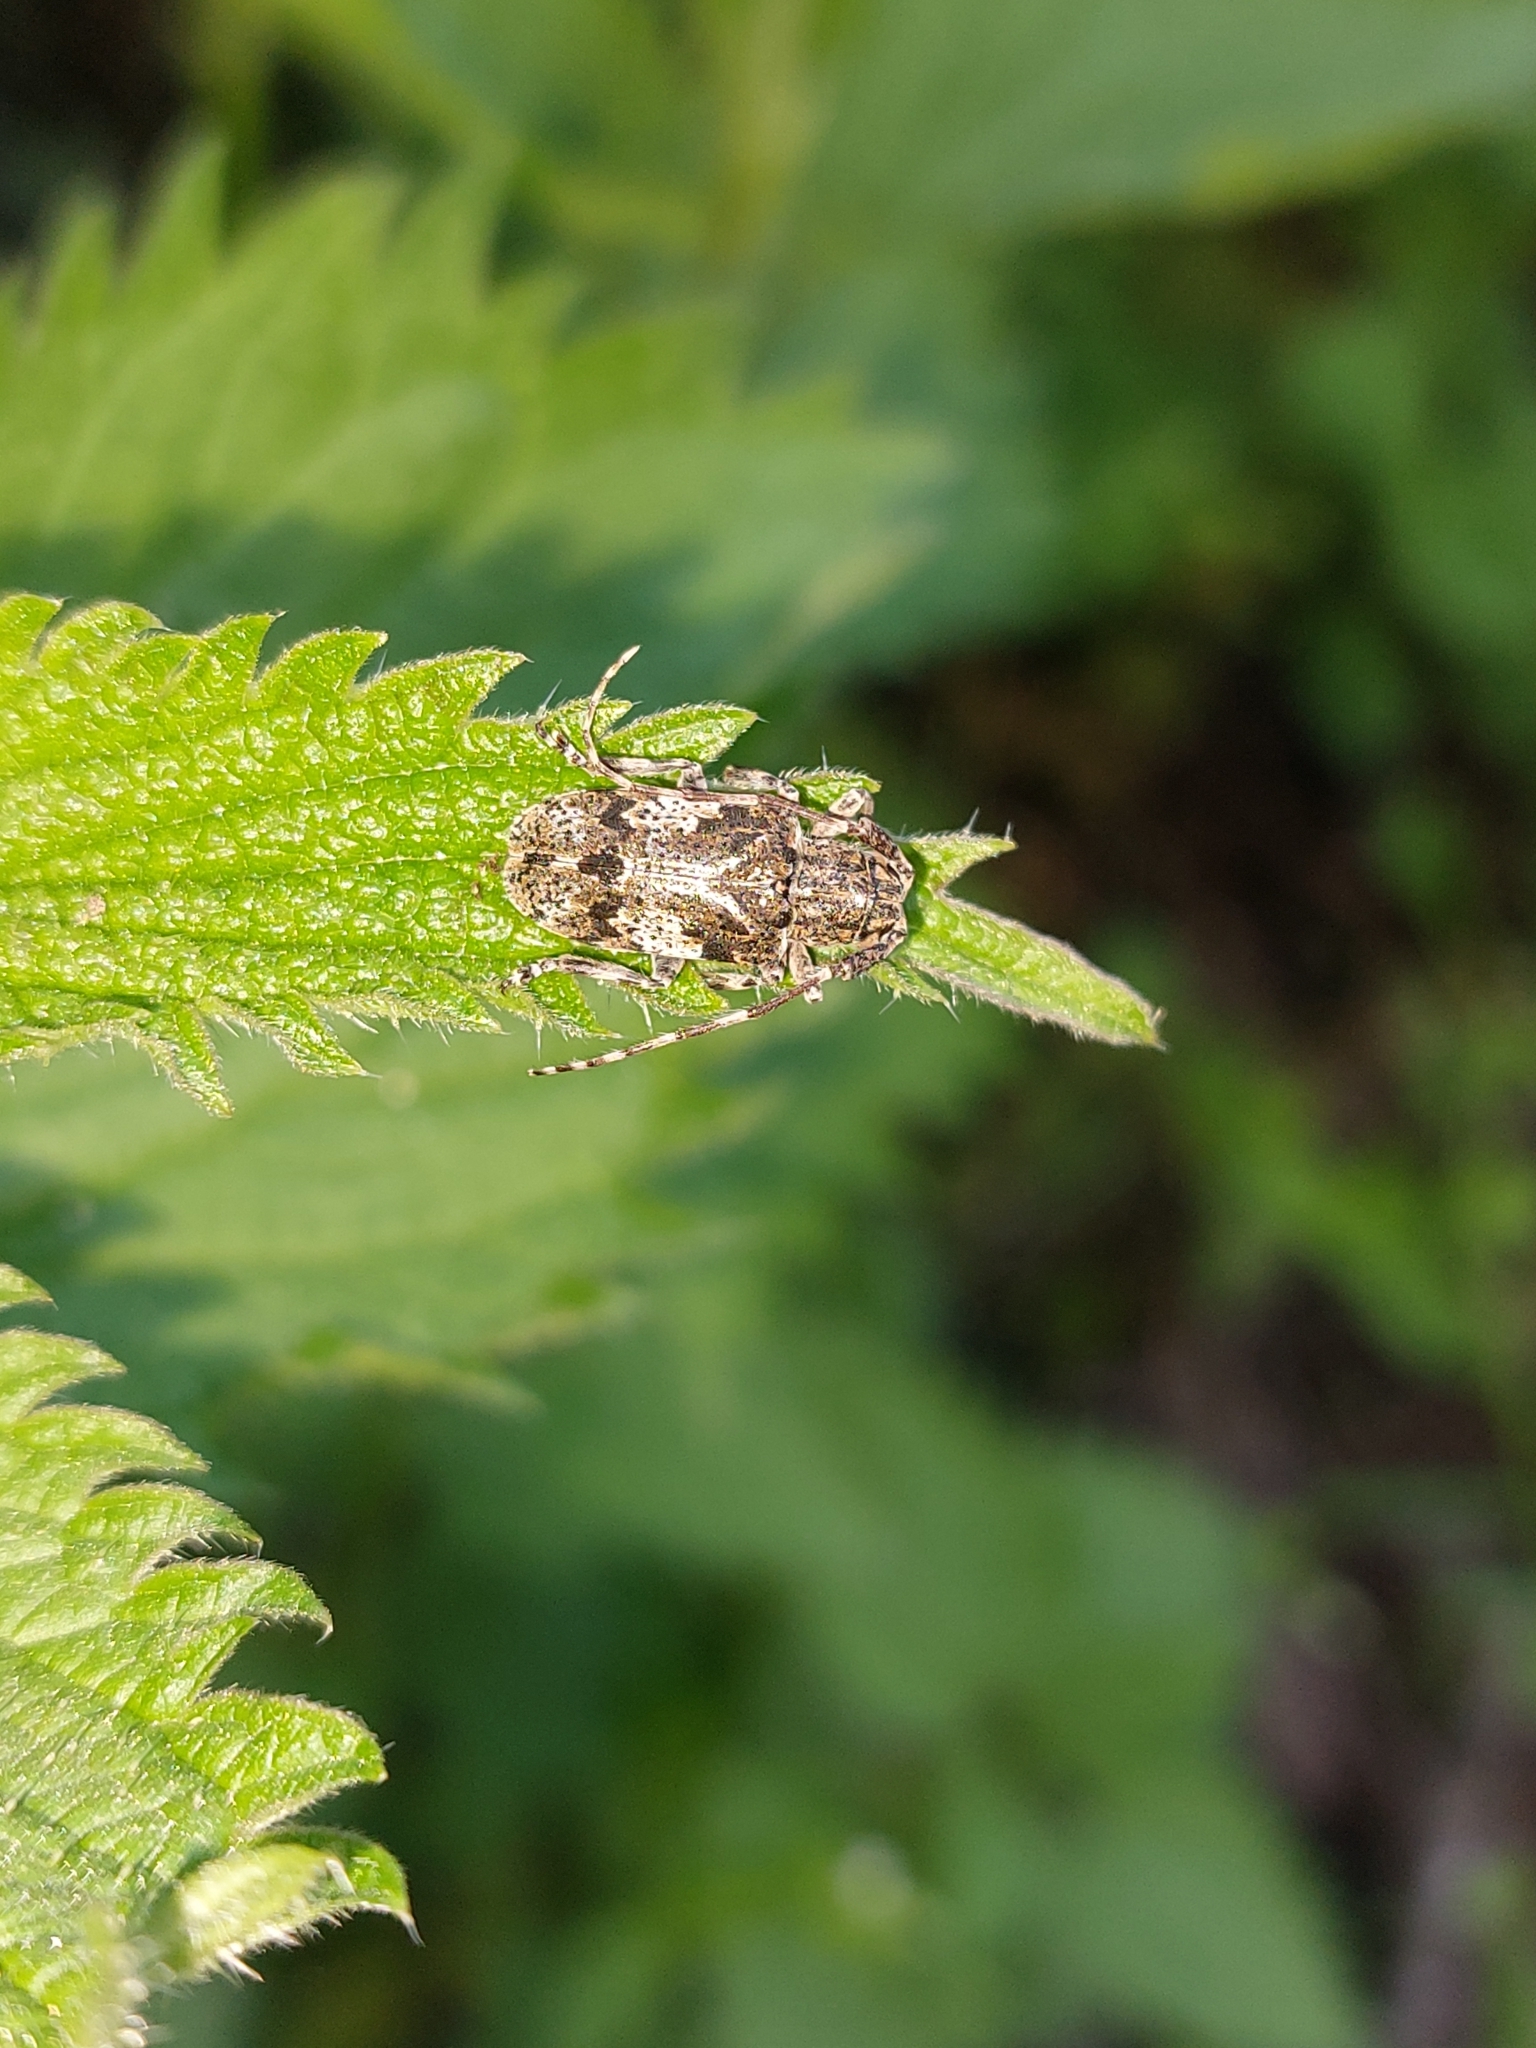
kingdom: Animalia
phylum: Arthropoda
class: Insecta
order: Coleoptera
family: Cerambycidae
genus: Mesosa
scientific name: Mesosa nebulosa
